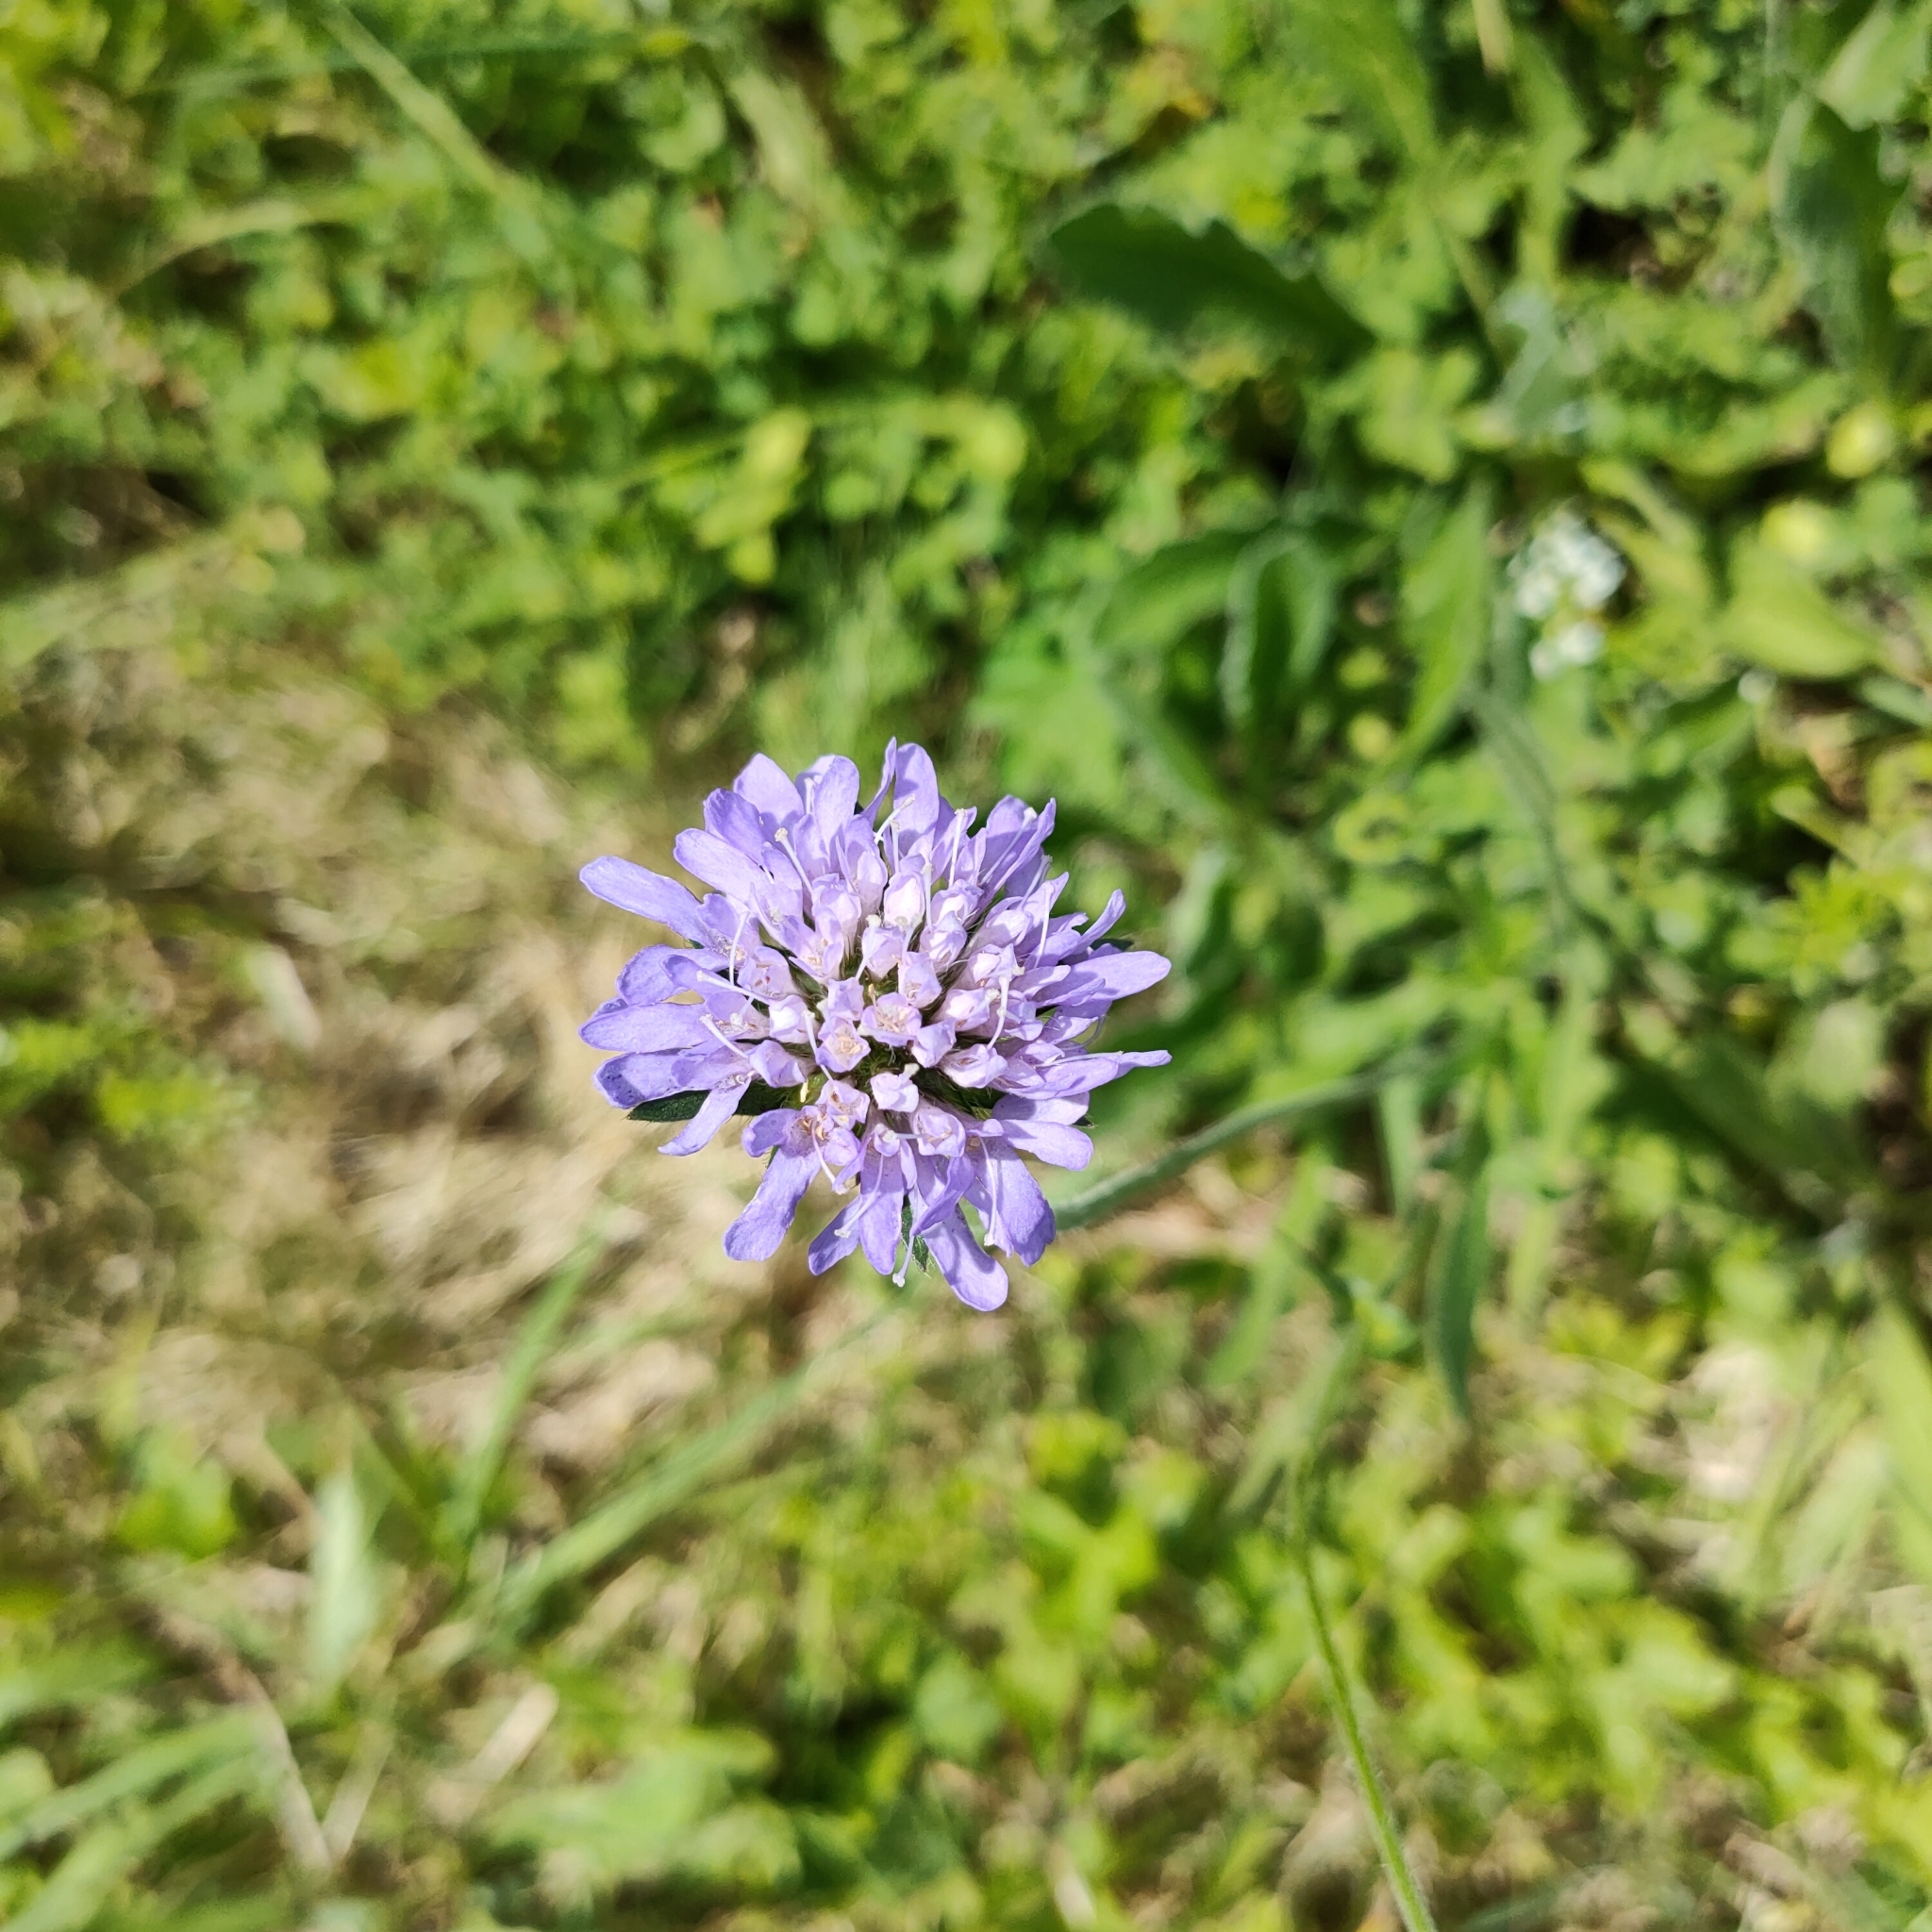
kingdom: Plantae
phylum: Tracheophyta
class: Magnoliopsida
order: Dipsacales
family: Caprifoliaceae
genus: Knautia
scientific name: Knautia arvensis
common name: Field scabiosa
